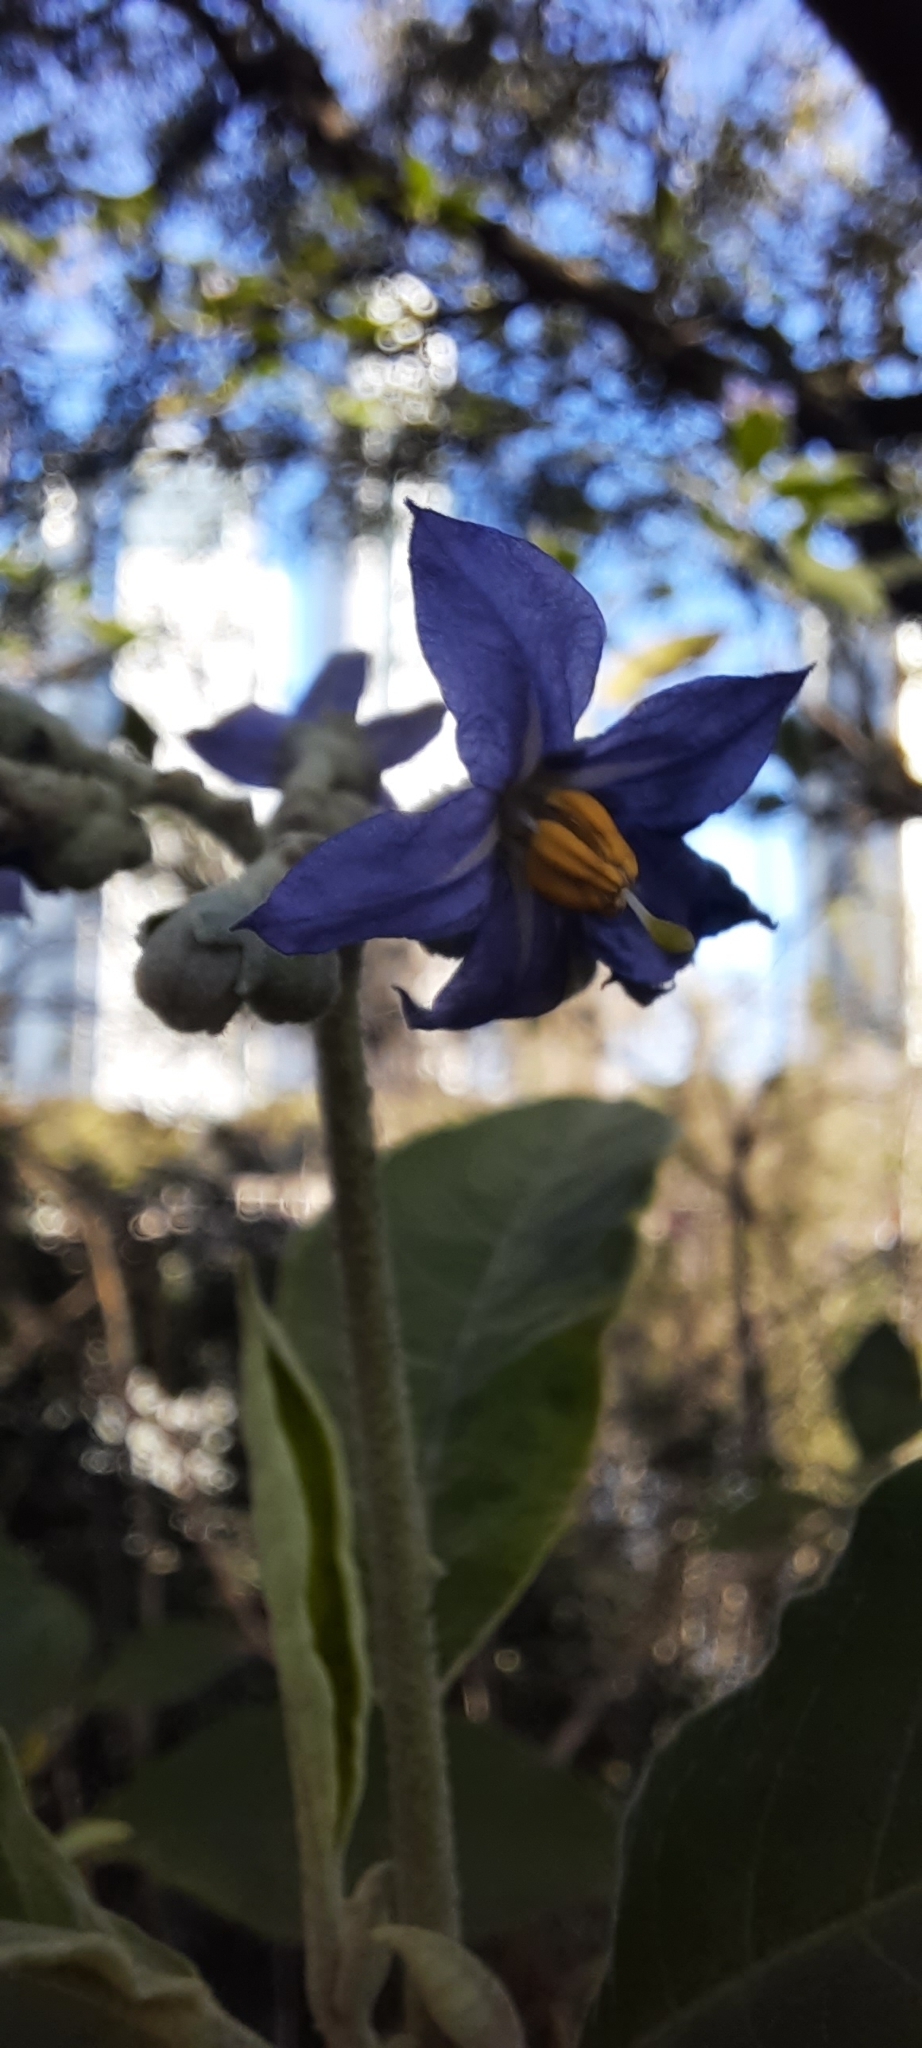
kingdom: Plantae
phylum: Tracheophyta
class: Magnoliopsida
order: Solanales
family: Solanaceae
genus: Solanum
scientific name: Solanum granulosoleprosum
